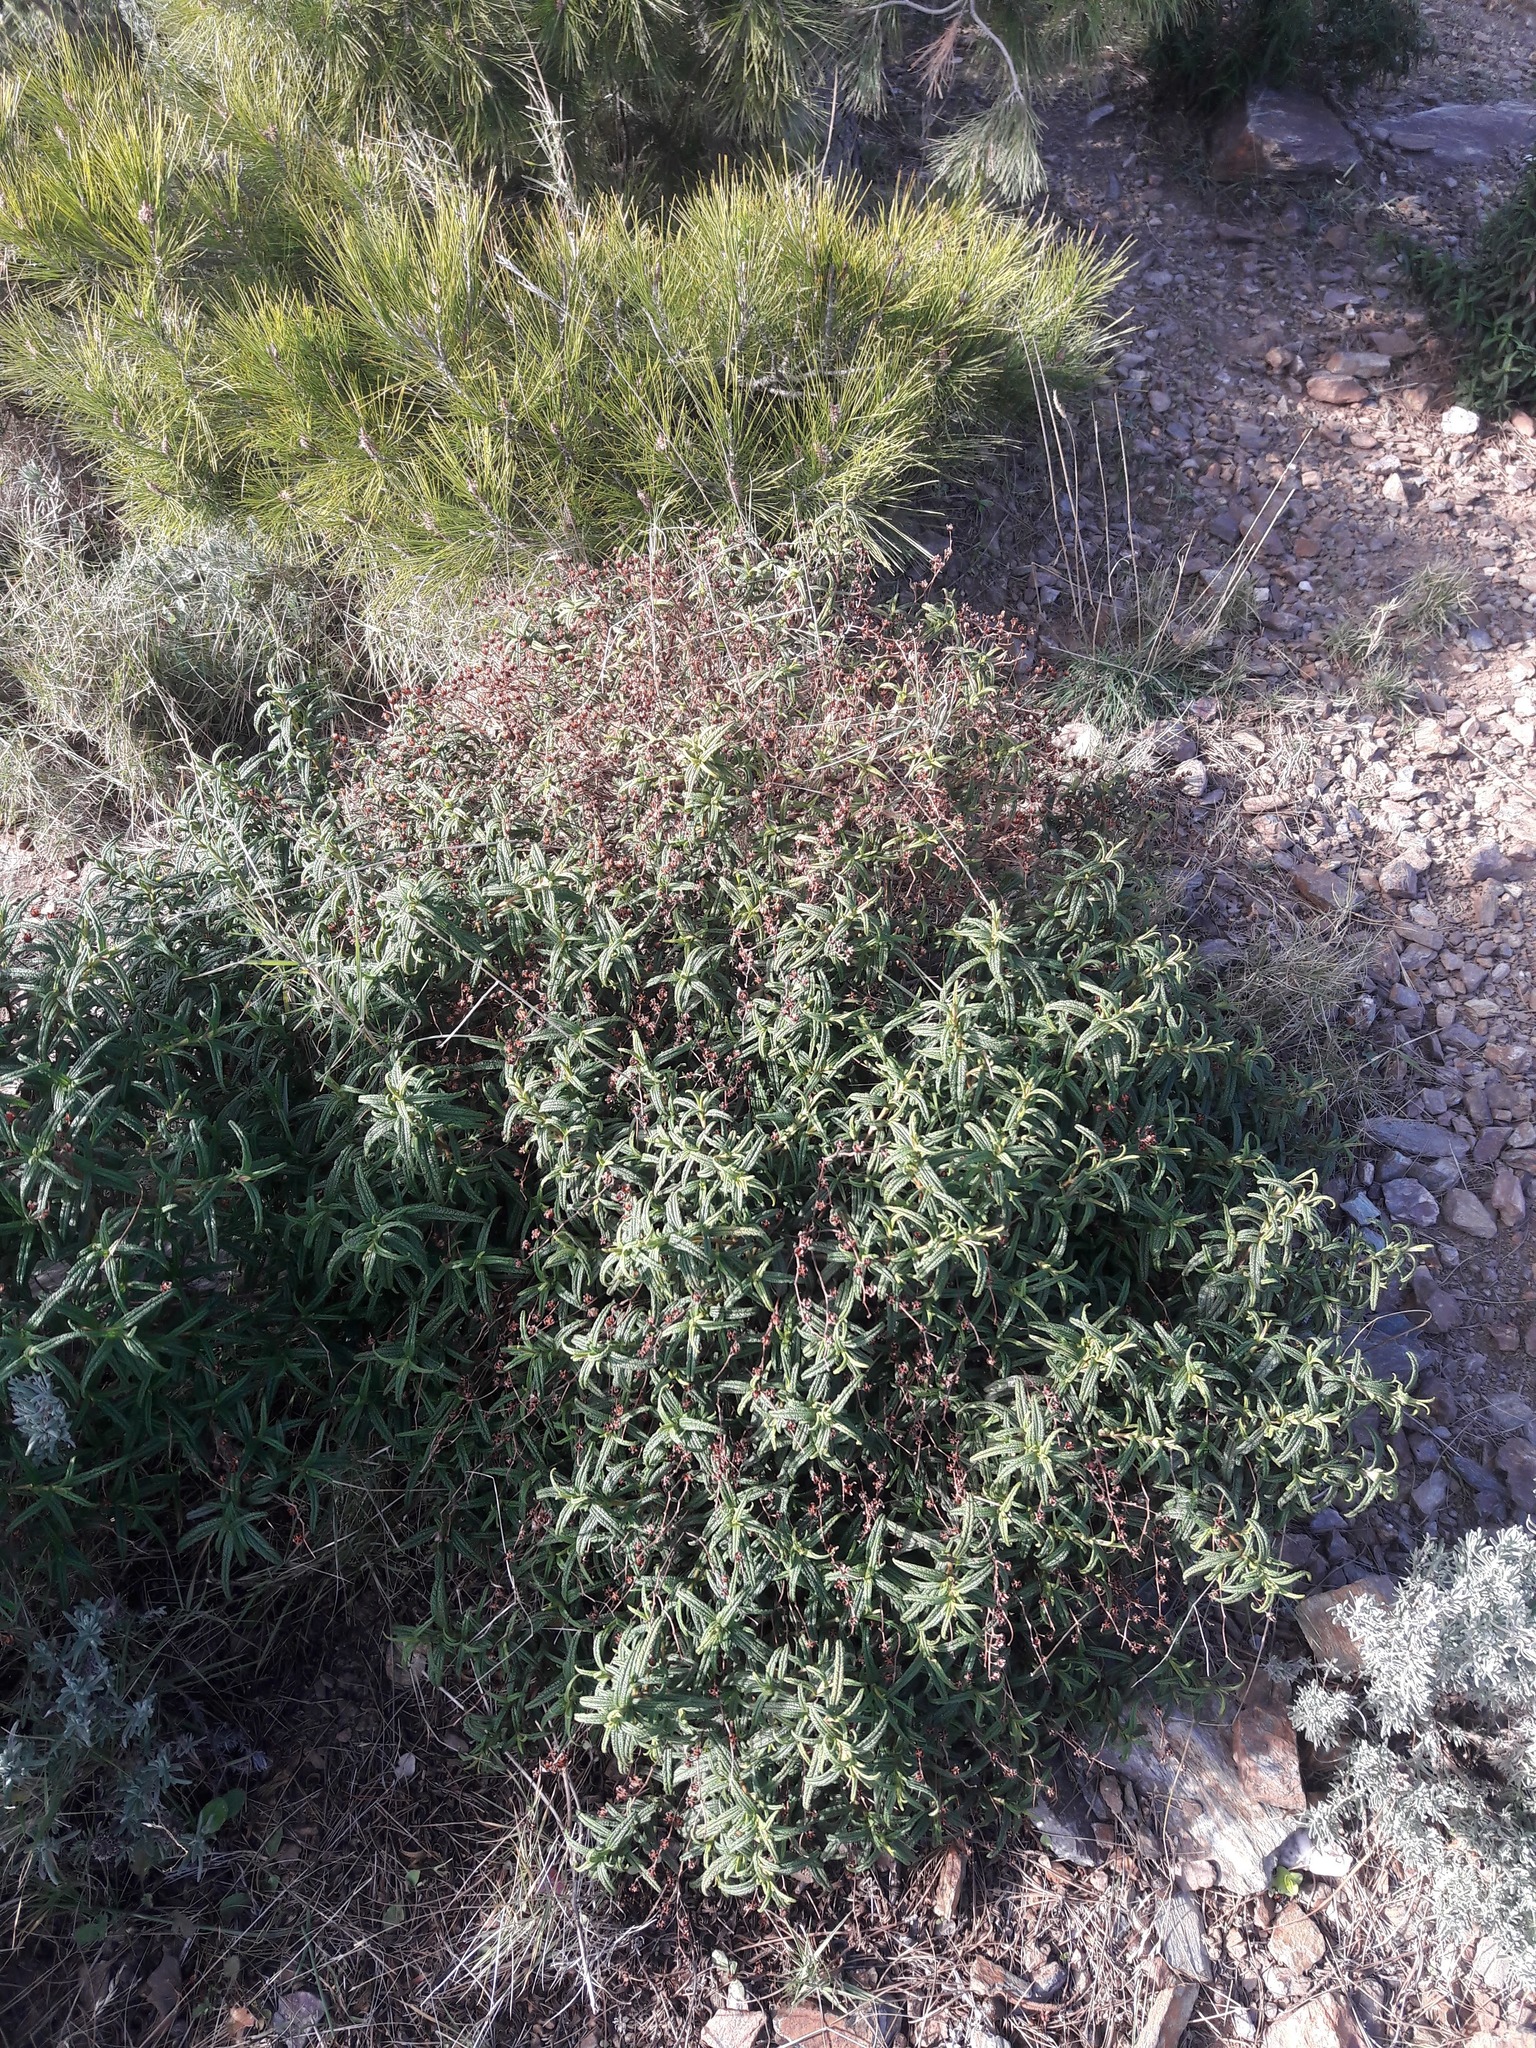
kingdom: Plantae
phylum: Tracheophyta
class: Magnoliopsida
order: Malvales
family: Cistaceae
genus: Cistus
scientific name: Cistus monspeliensis
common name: Montpelier cistus
